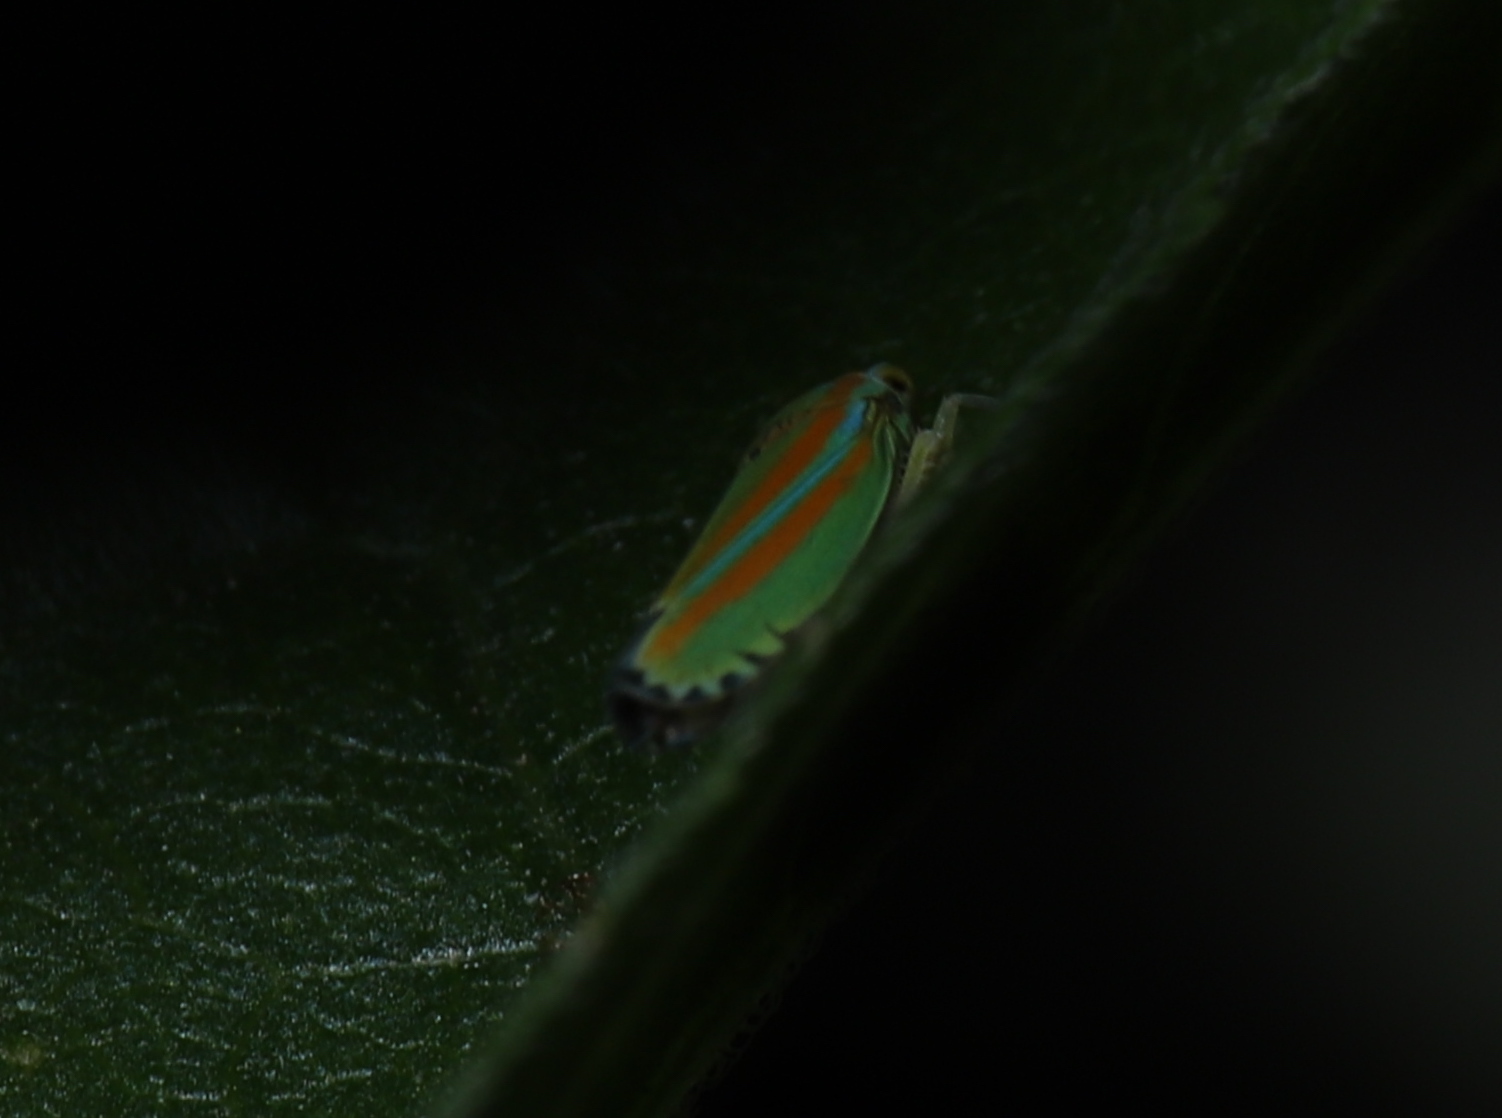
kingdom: Animalia
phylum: Arthropoda
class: Insecta
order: Hemiptera
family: Cicadellidae
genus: Graphocephala
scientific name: Graphocephala versuta
